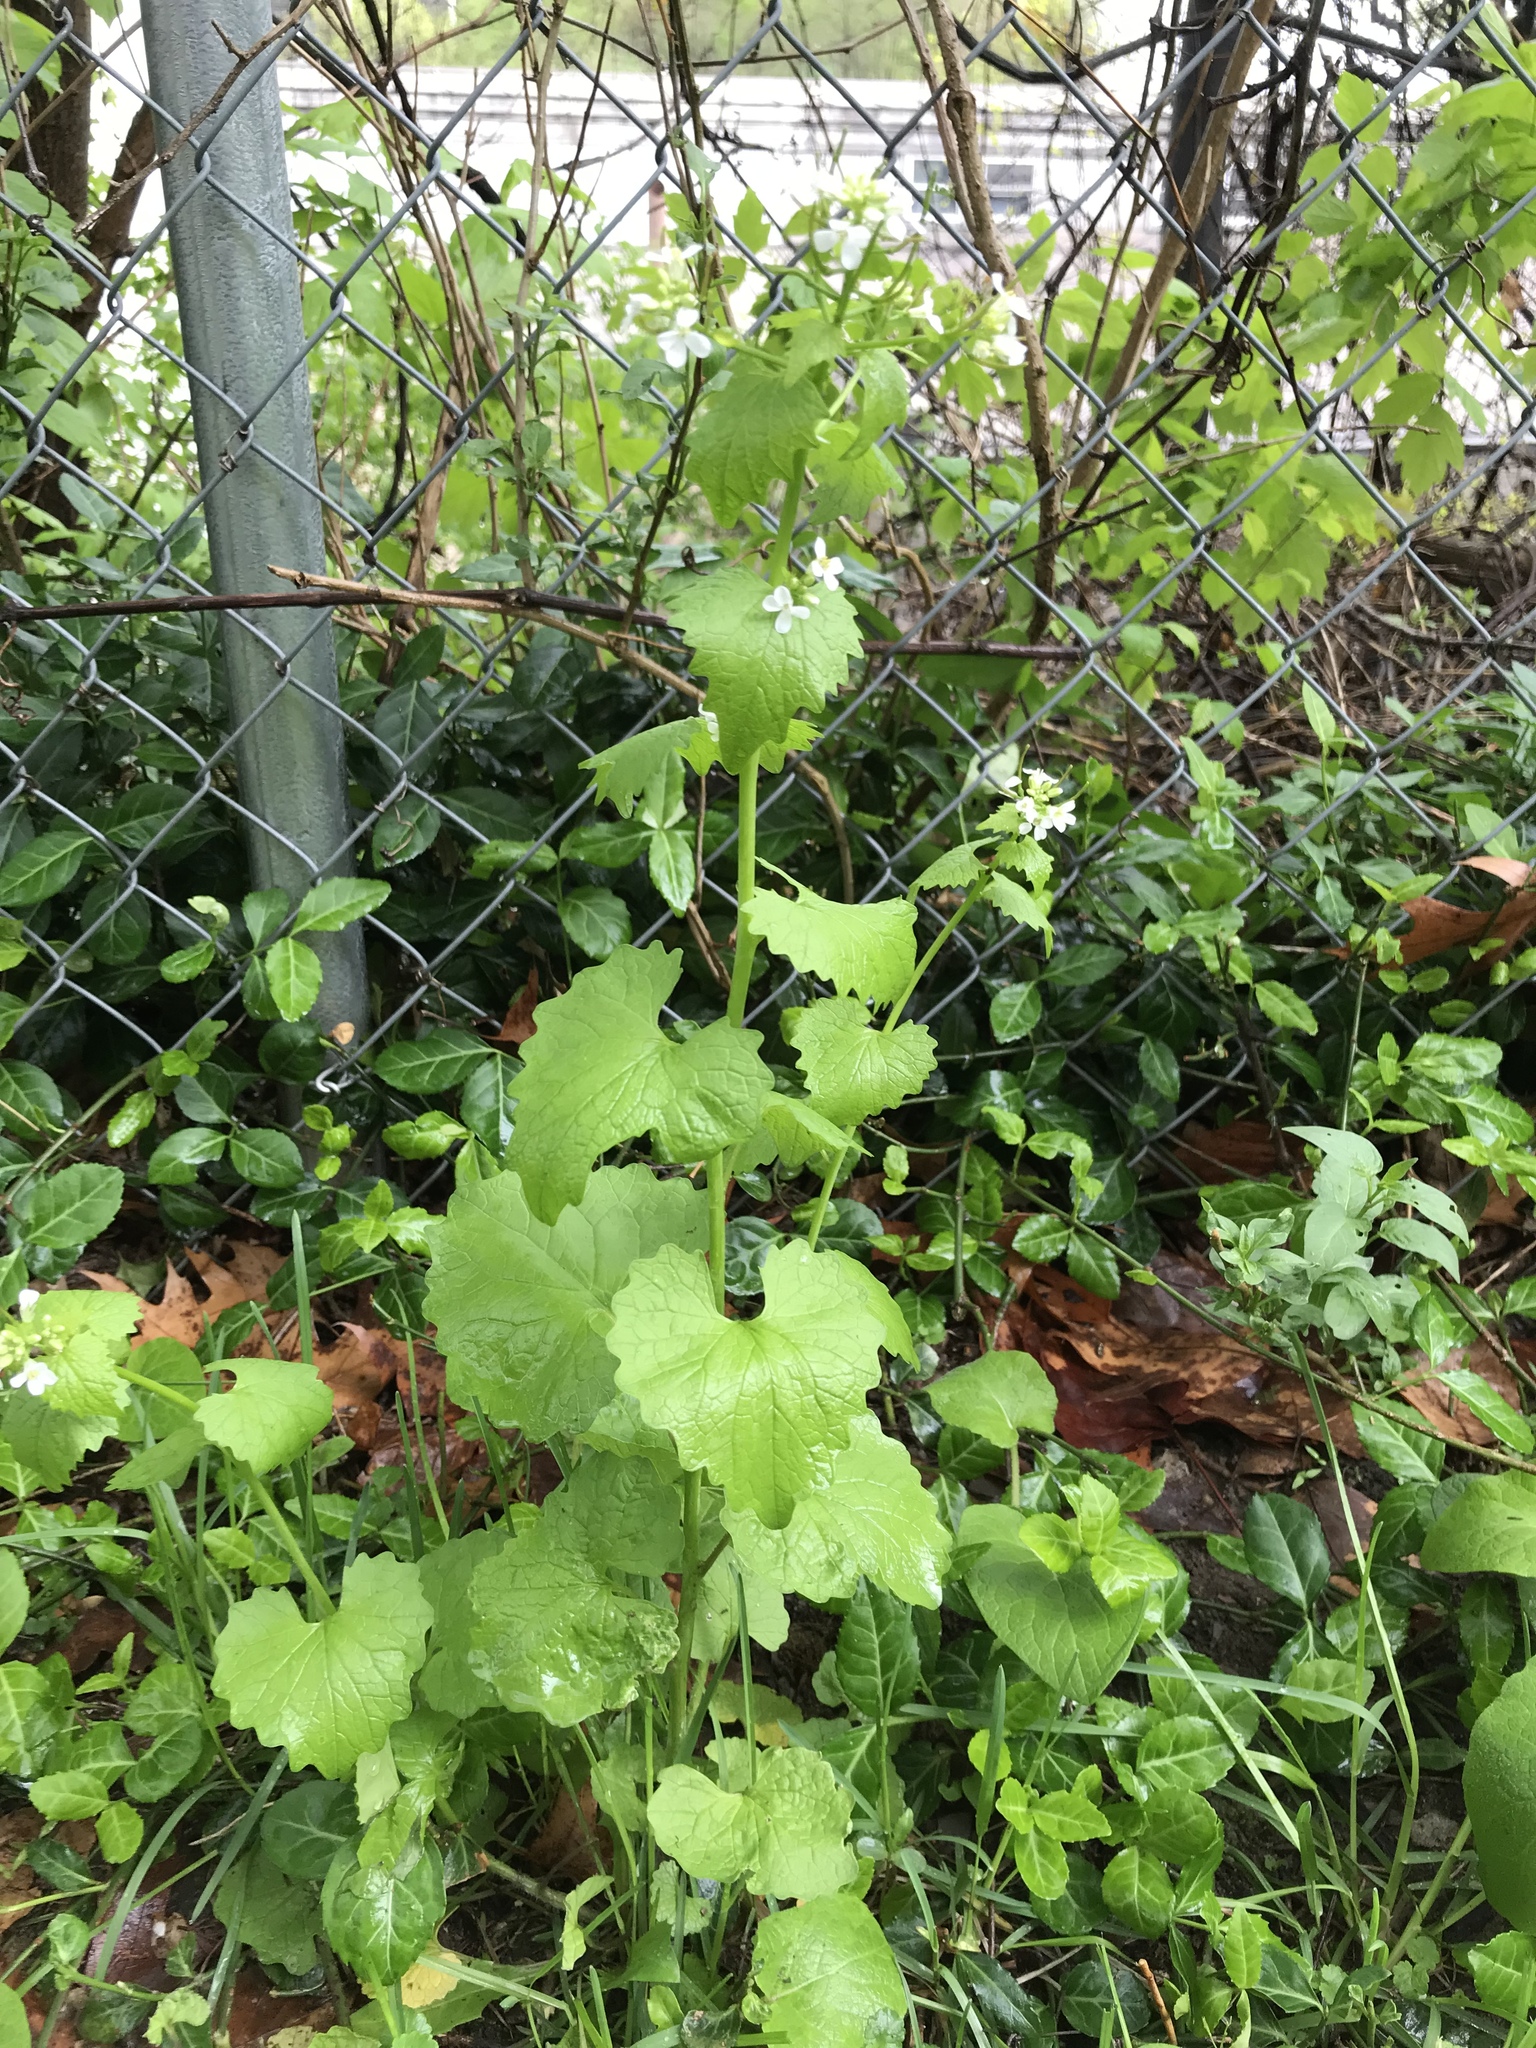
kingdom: Plantae
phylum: Tracheophyta
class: Magnoliopsida
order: Brassicales
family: Brassicaceae
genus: Alliaria
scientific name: Alliaria petiolata
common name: Garlic mustard
